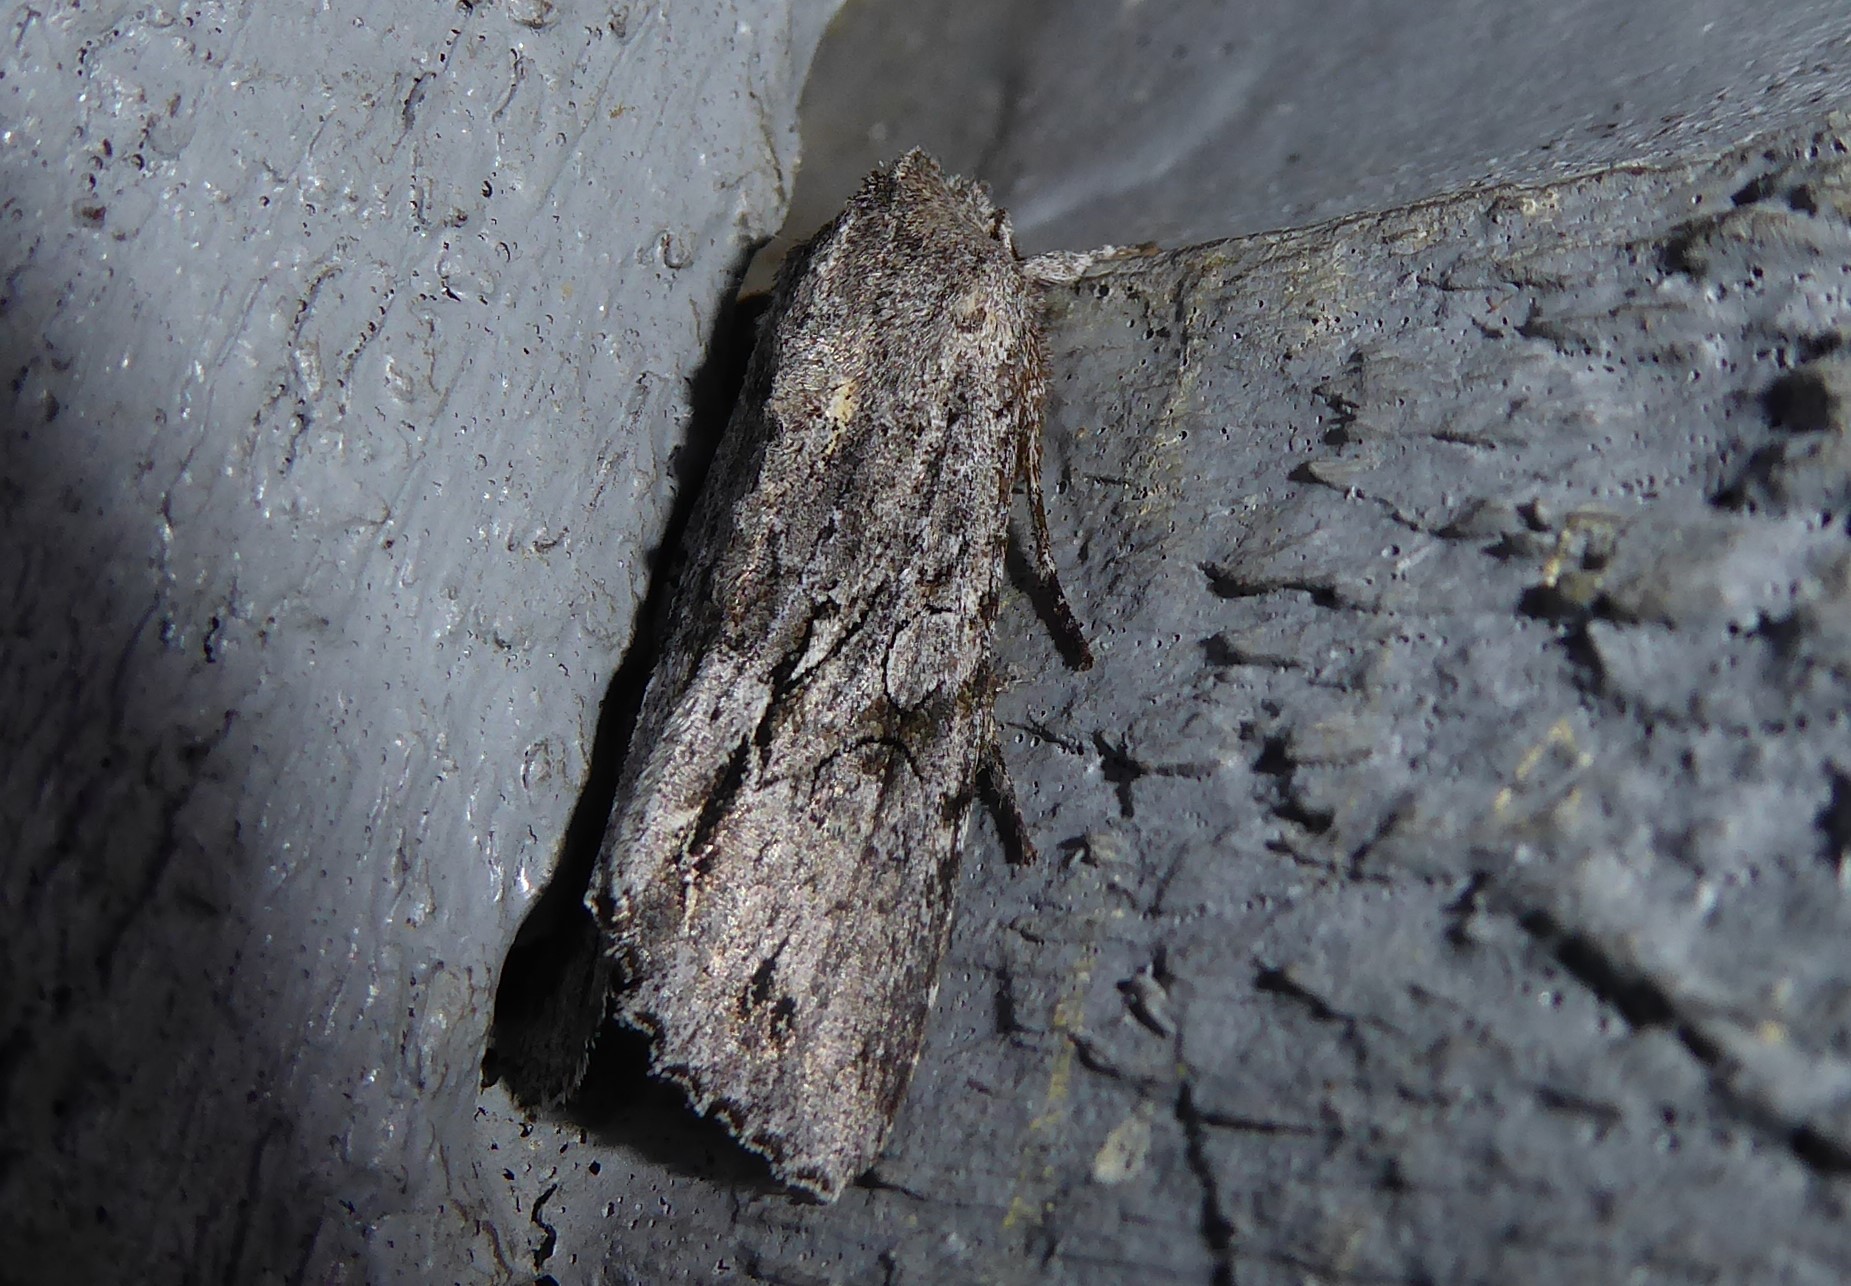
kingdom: Animalia
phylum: Arthropoda
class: Insecta
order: Lepidoptera
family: Noctuidae
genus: Ichneutica
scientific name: Ichneutica
